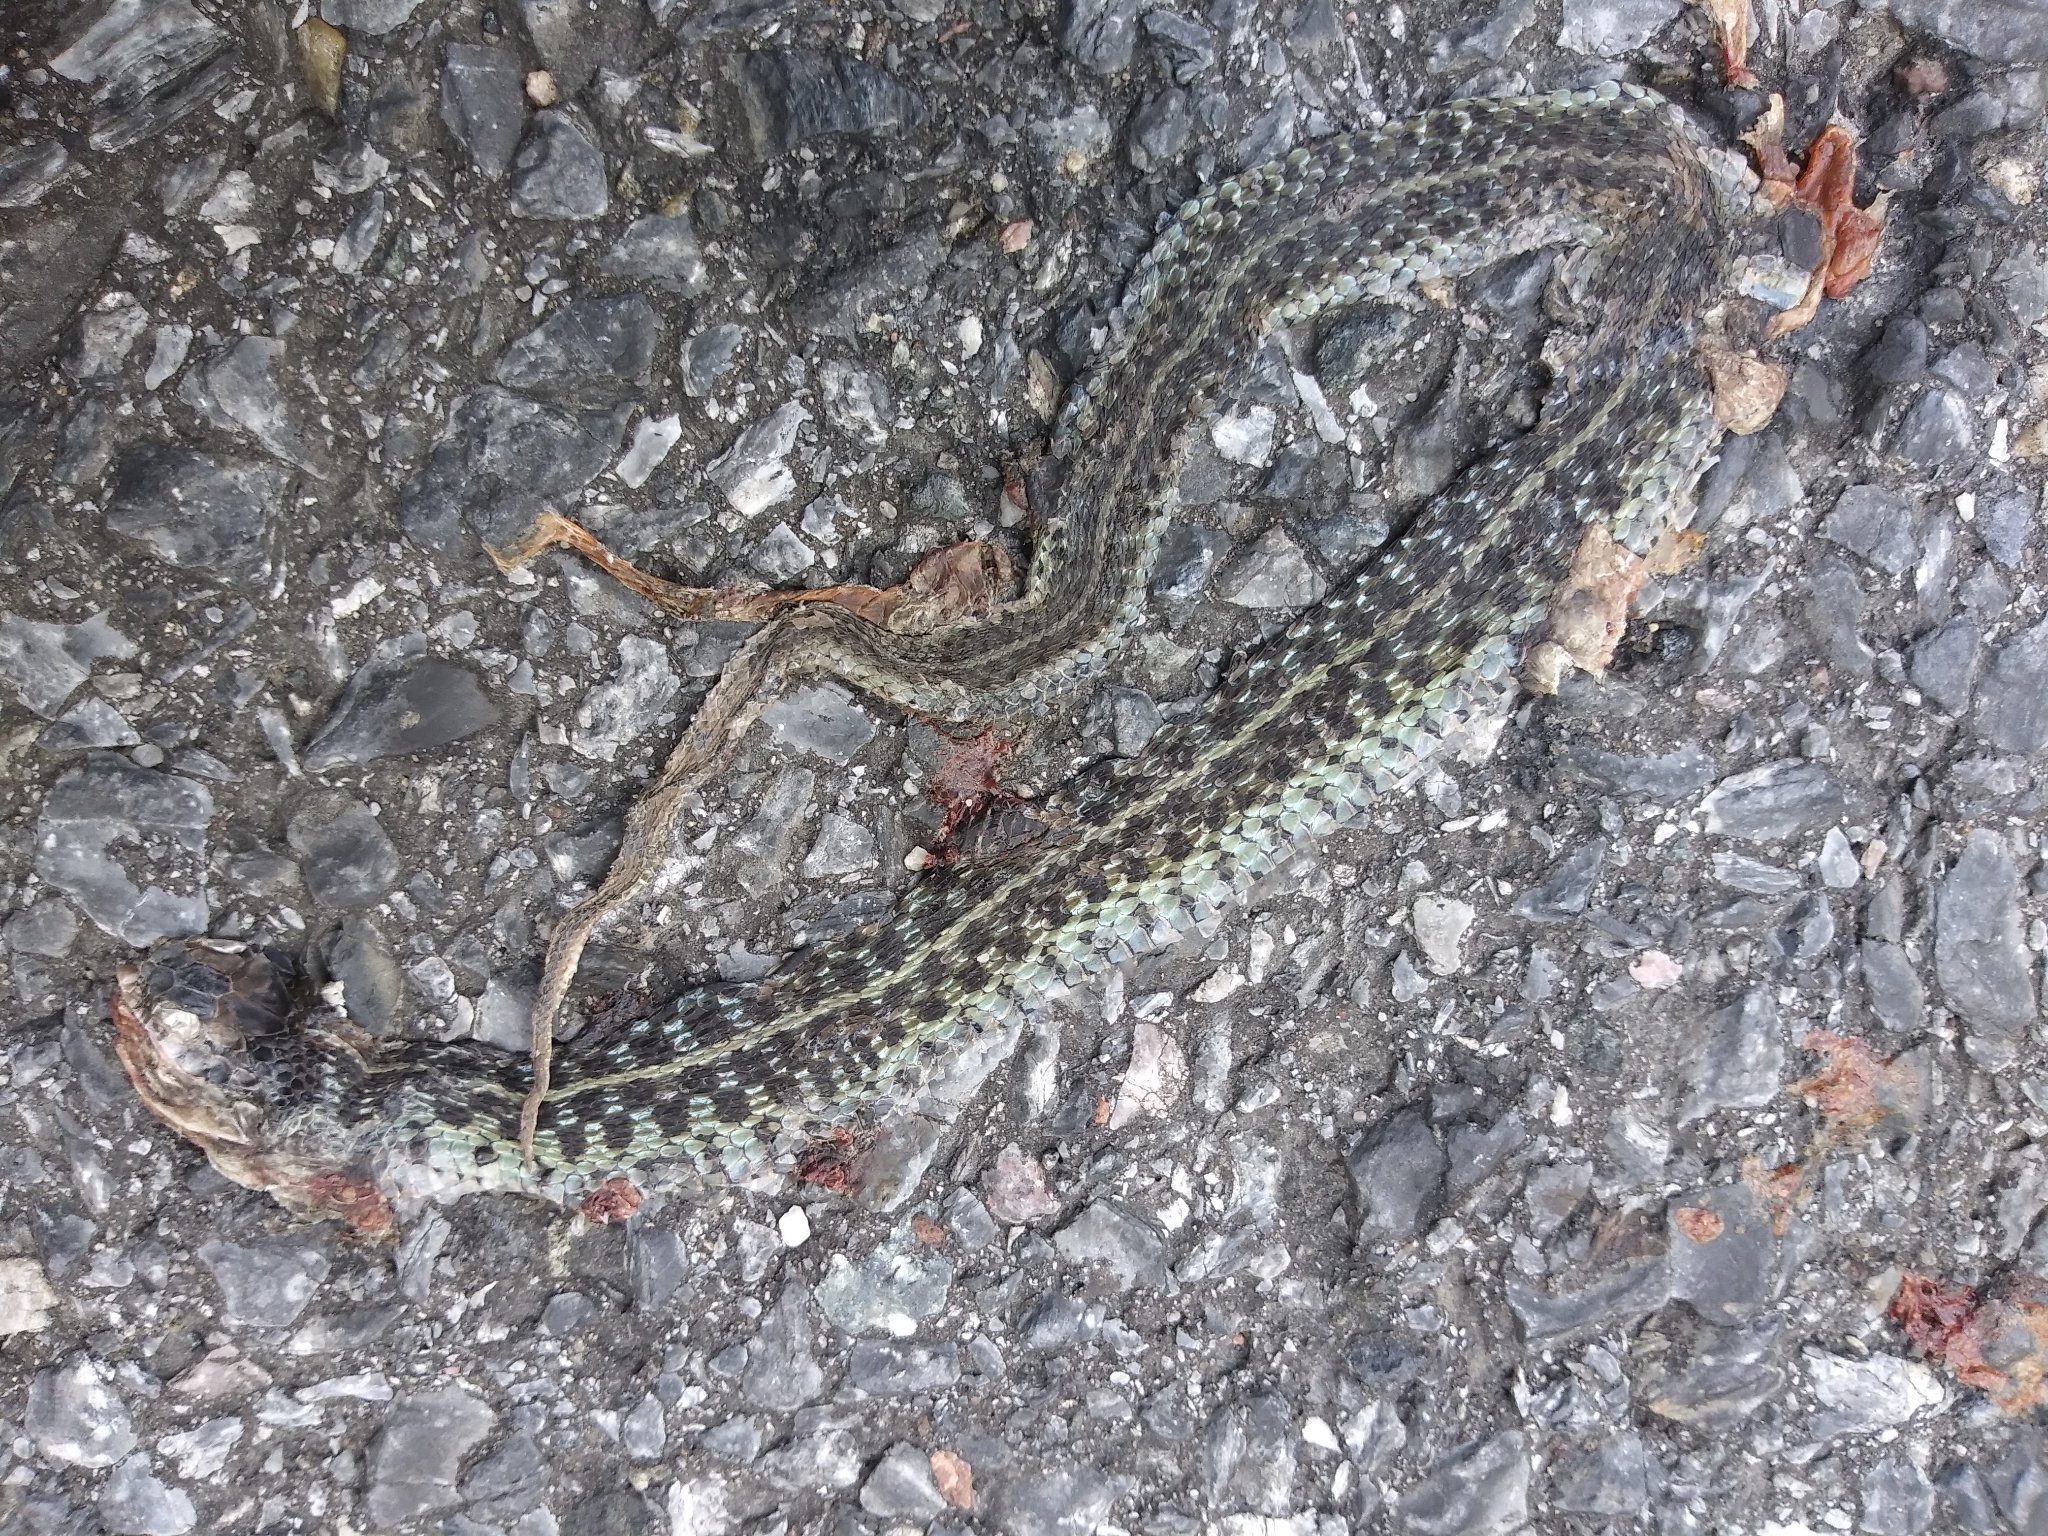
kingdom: Animalia
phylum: Chordata
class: Squamata
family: Colubridae
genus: Thamnophis
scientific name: Thamnophis sirtalis
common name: Common garter snake
